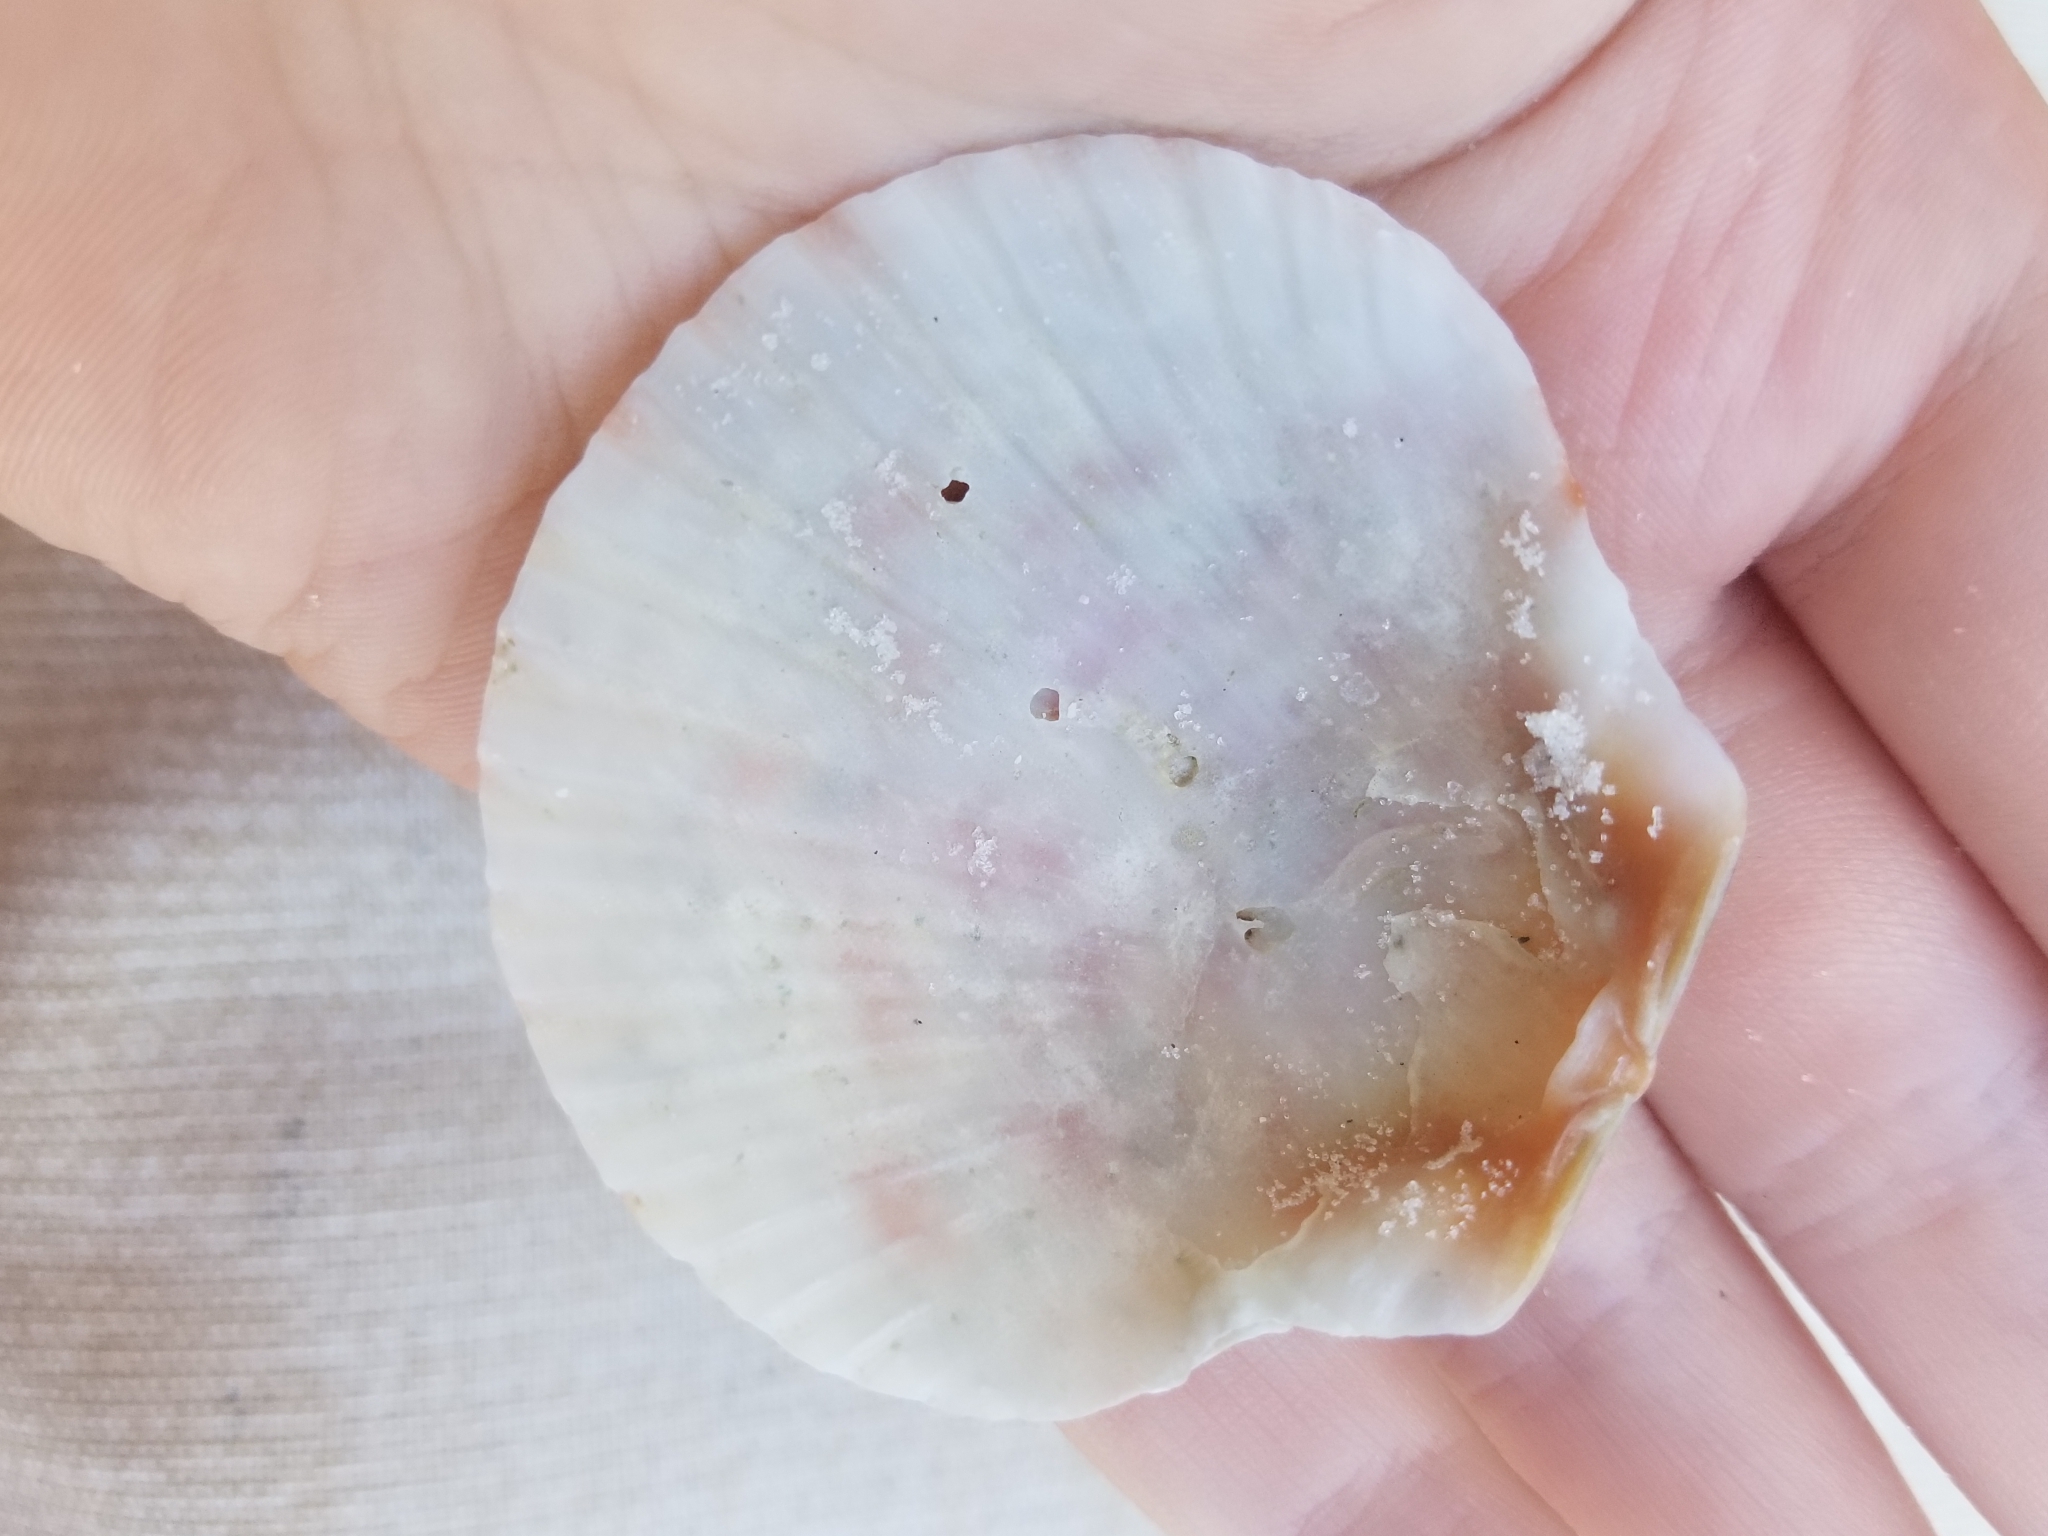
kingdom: Animalia
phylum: Mollusca
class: Bivalvia
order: Pectinida
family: Pectinidae
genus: Argopecten
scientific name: Argopecten gibbus
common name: Atlantic calico scallop
